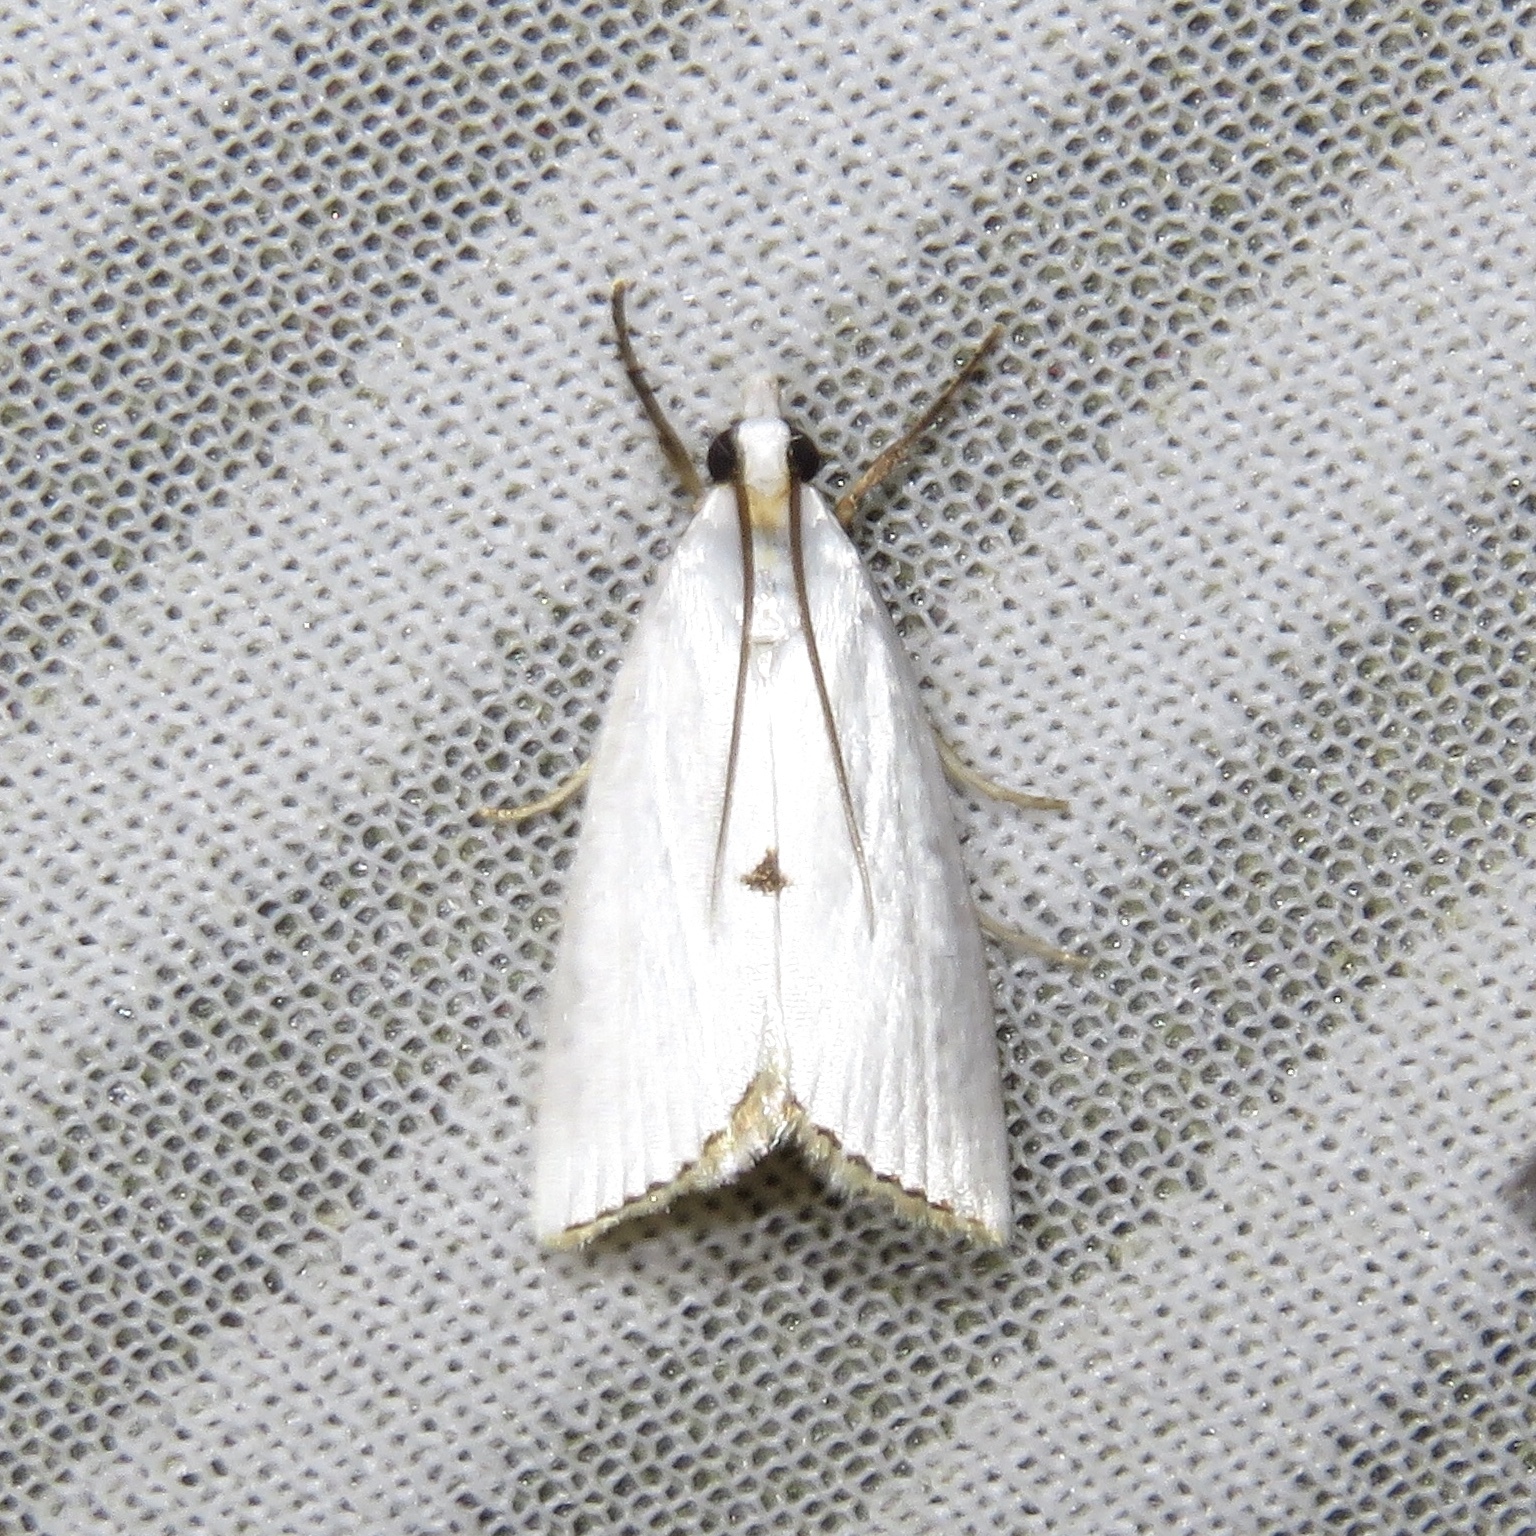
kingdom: Animalia
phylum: Arthropoda
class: Insecta
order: Lepidoptera
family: Crambidae
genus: Argyria
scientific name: Argyria nivalis
